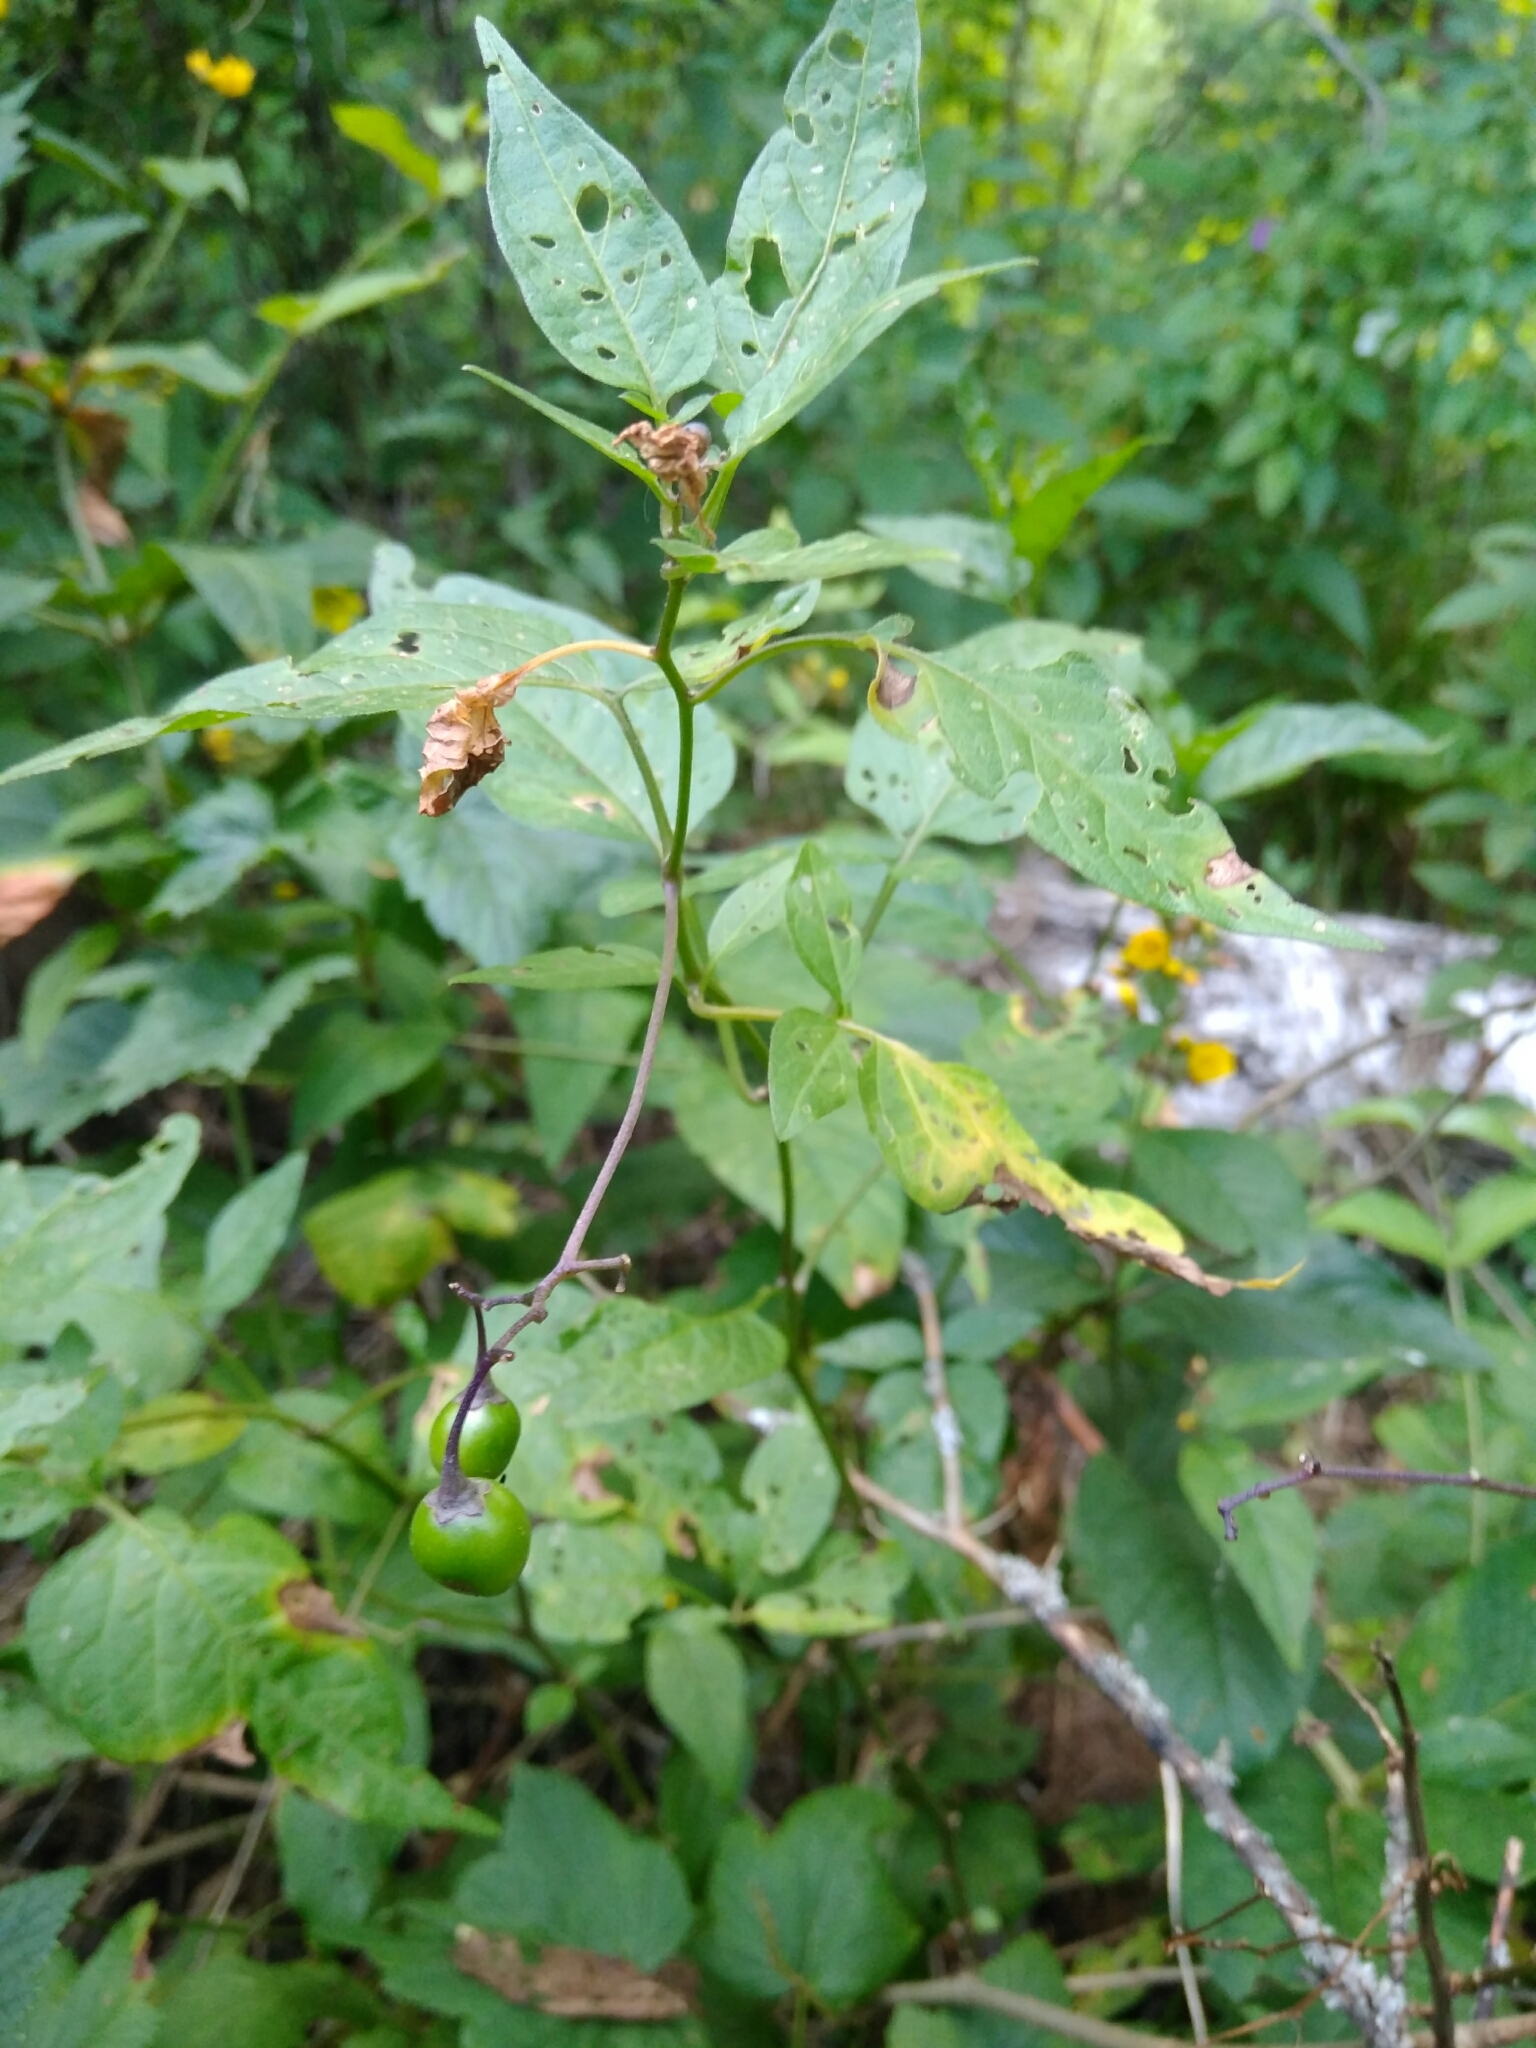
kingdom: Plantae
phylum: Tracheophyta
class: Magnoliopsida
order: Solanales
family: Solanaceae
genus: Solanum
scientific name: Solanum dulcamara
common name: Climbing nightshade
